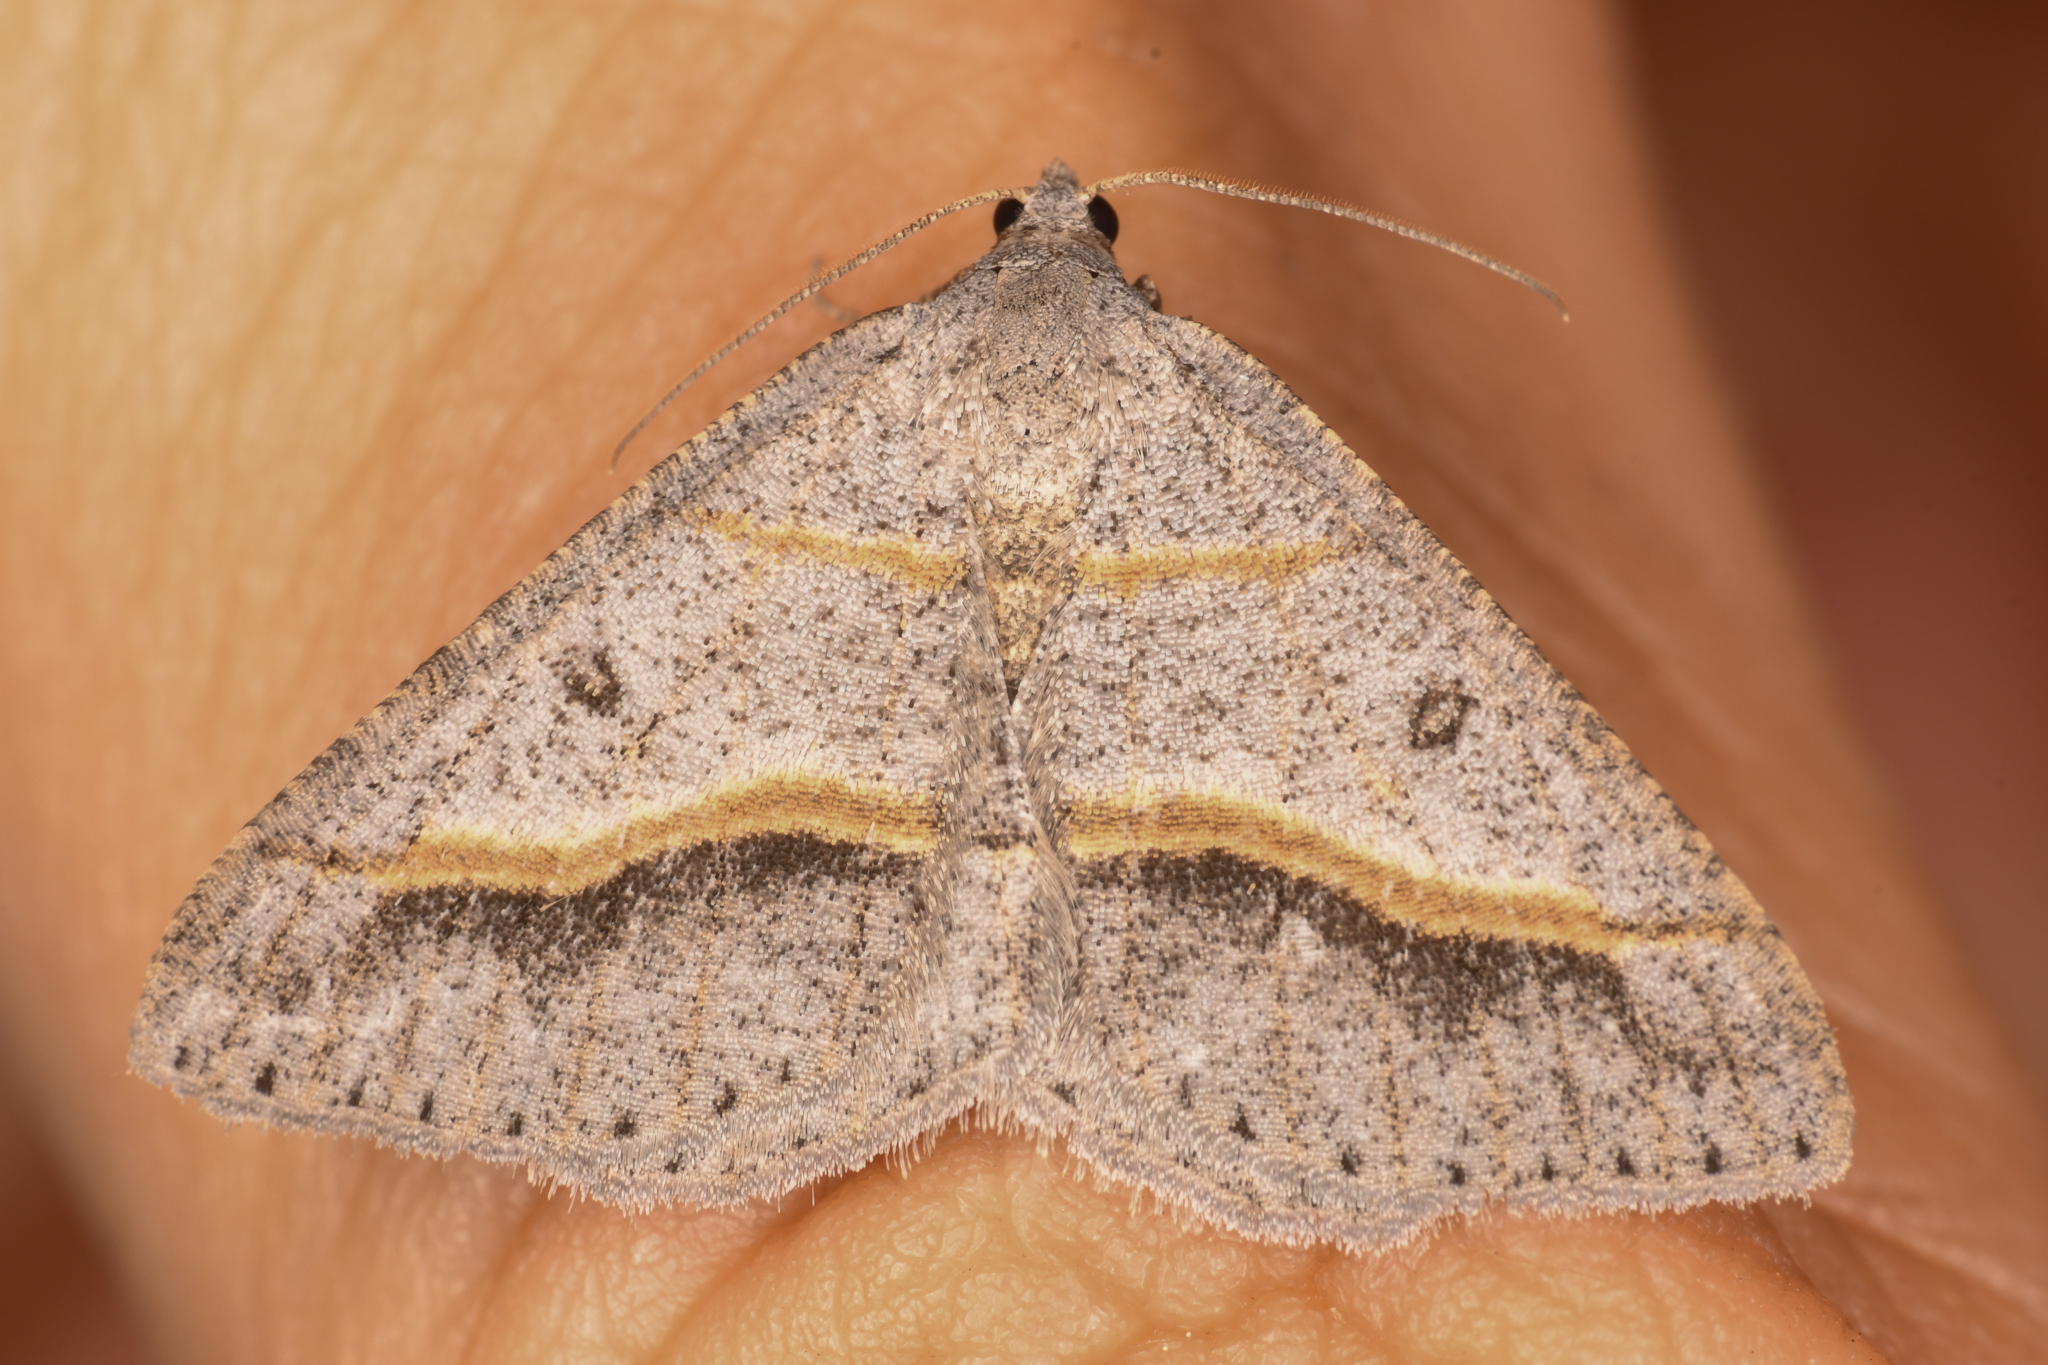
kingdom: Animalia
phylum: Arthropoda
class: Insecta
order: Lepidoptera
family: Geometridae
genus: Digrammia
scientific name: Digrammia neptaria
